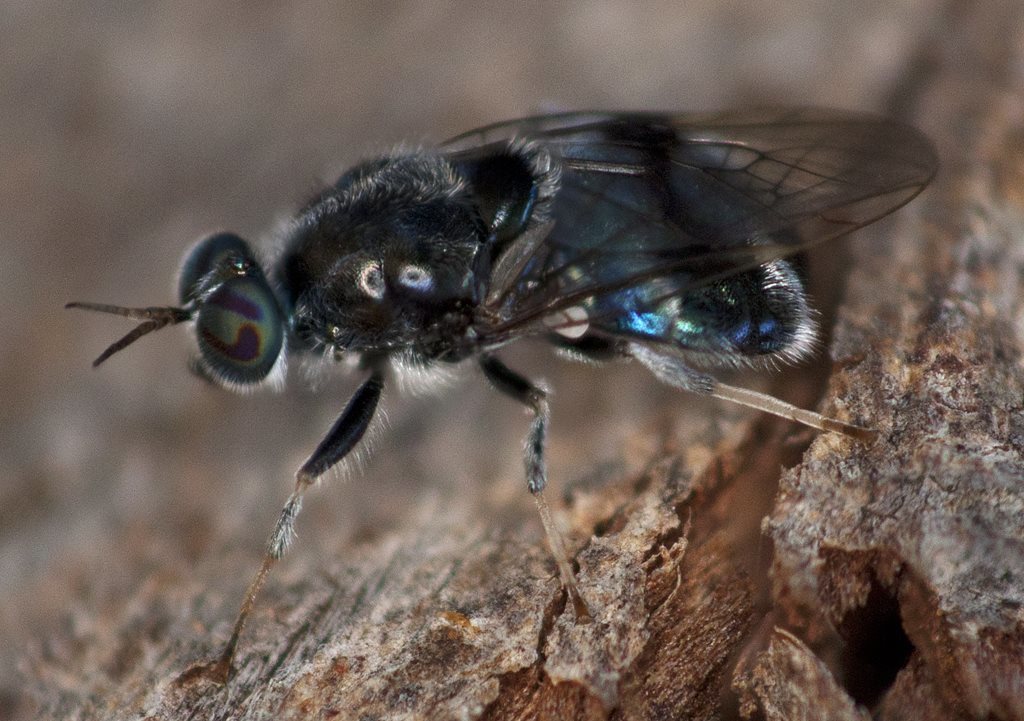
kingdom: Animalia
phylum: Arthropoda
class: Insecta
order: Diptera
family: Stratiomyidae
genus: Lecomyia
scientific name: Lecomyia cyanea
